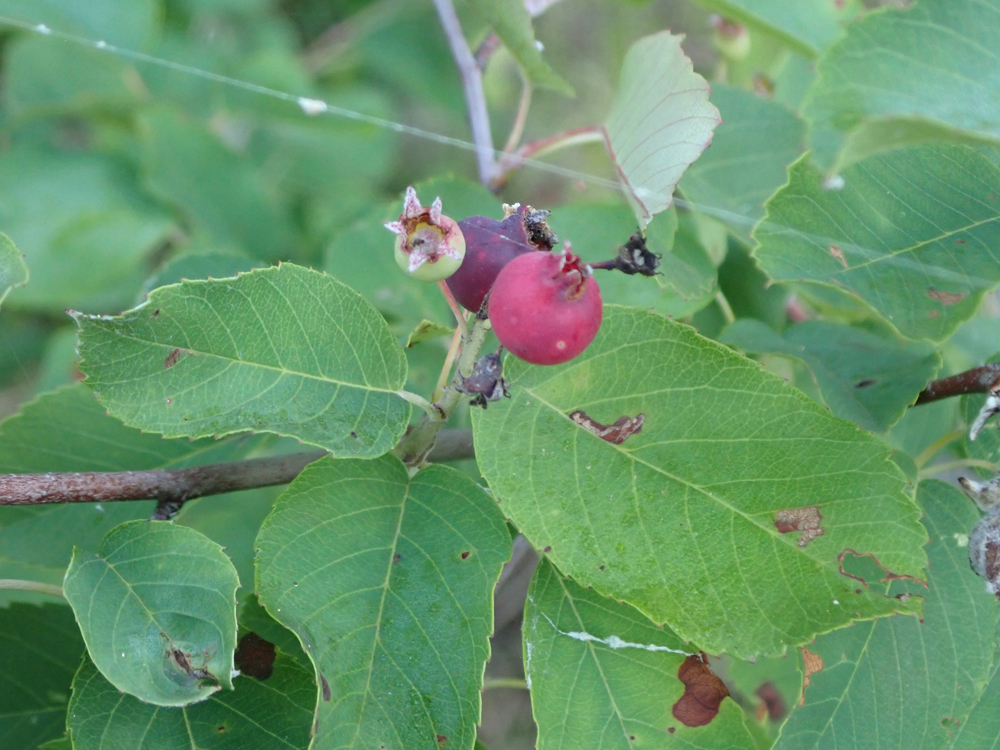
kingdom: Plantae
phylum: Tracheophyta
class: Magnoliopsida
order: Rosales
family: Rosaceae
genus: Amelanchier
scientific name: Amelanchier alnifolia
